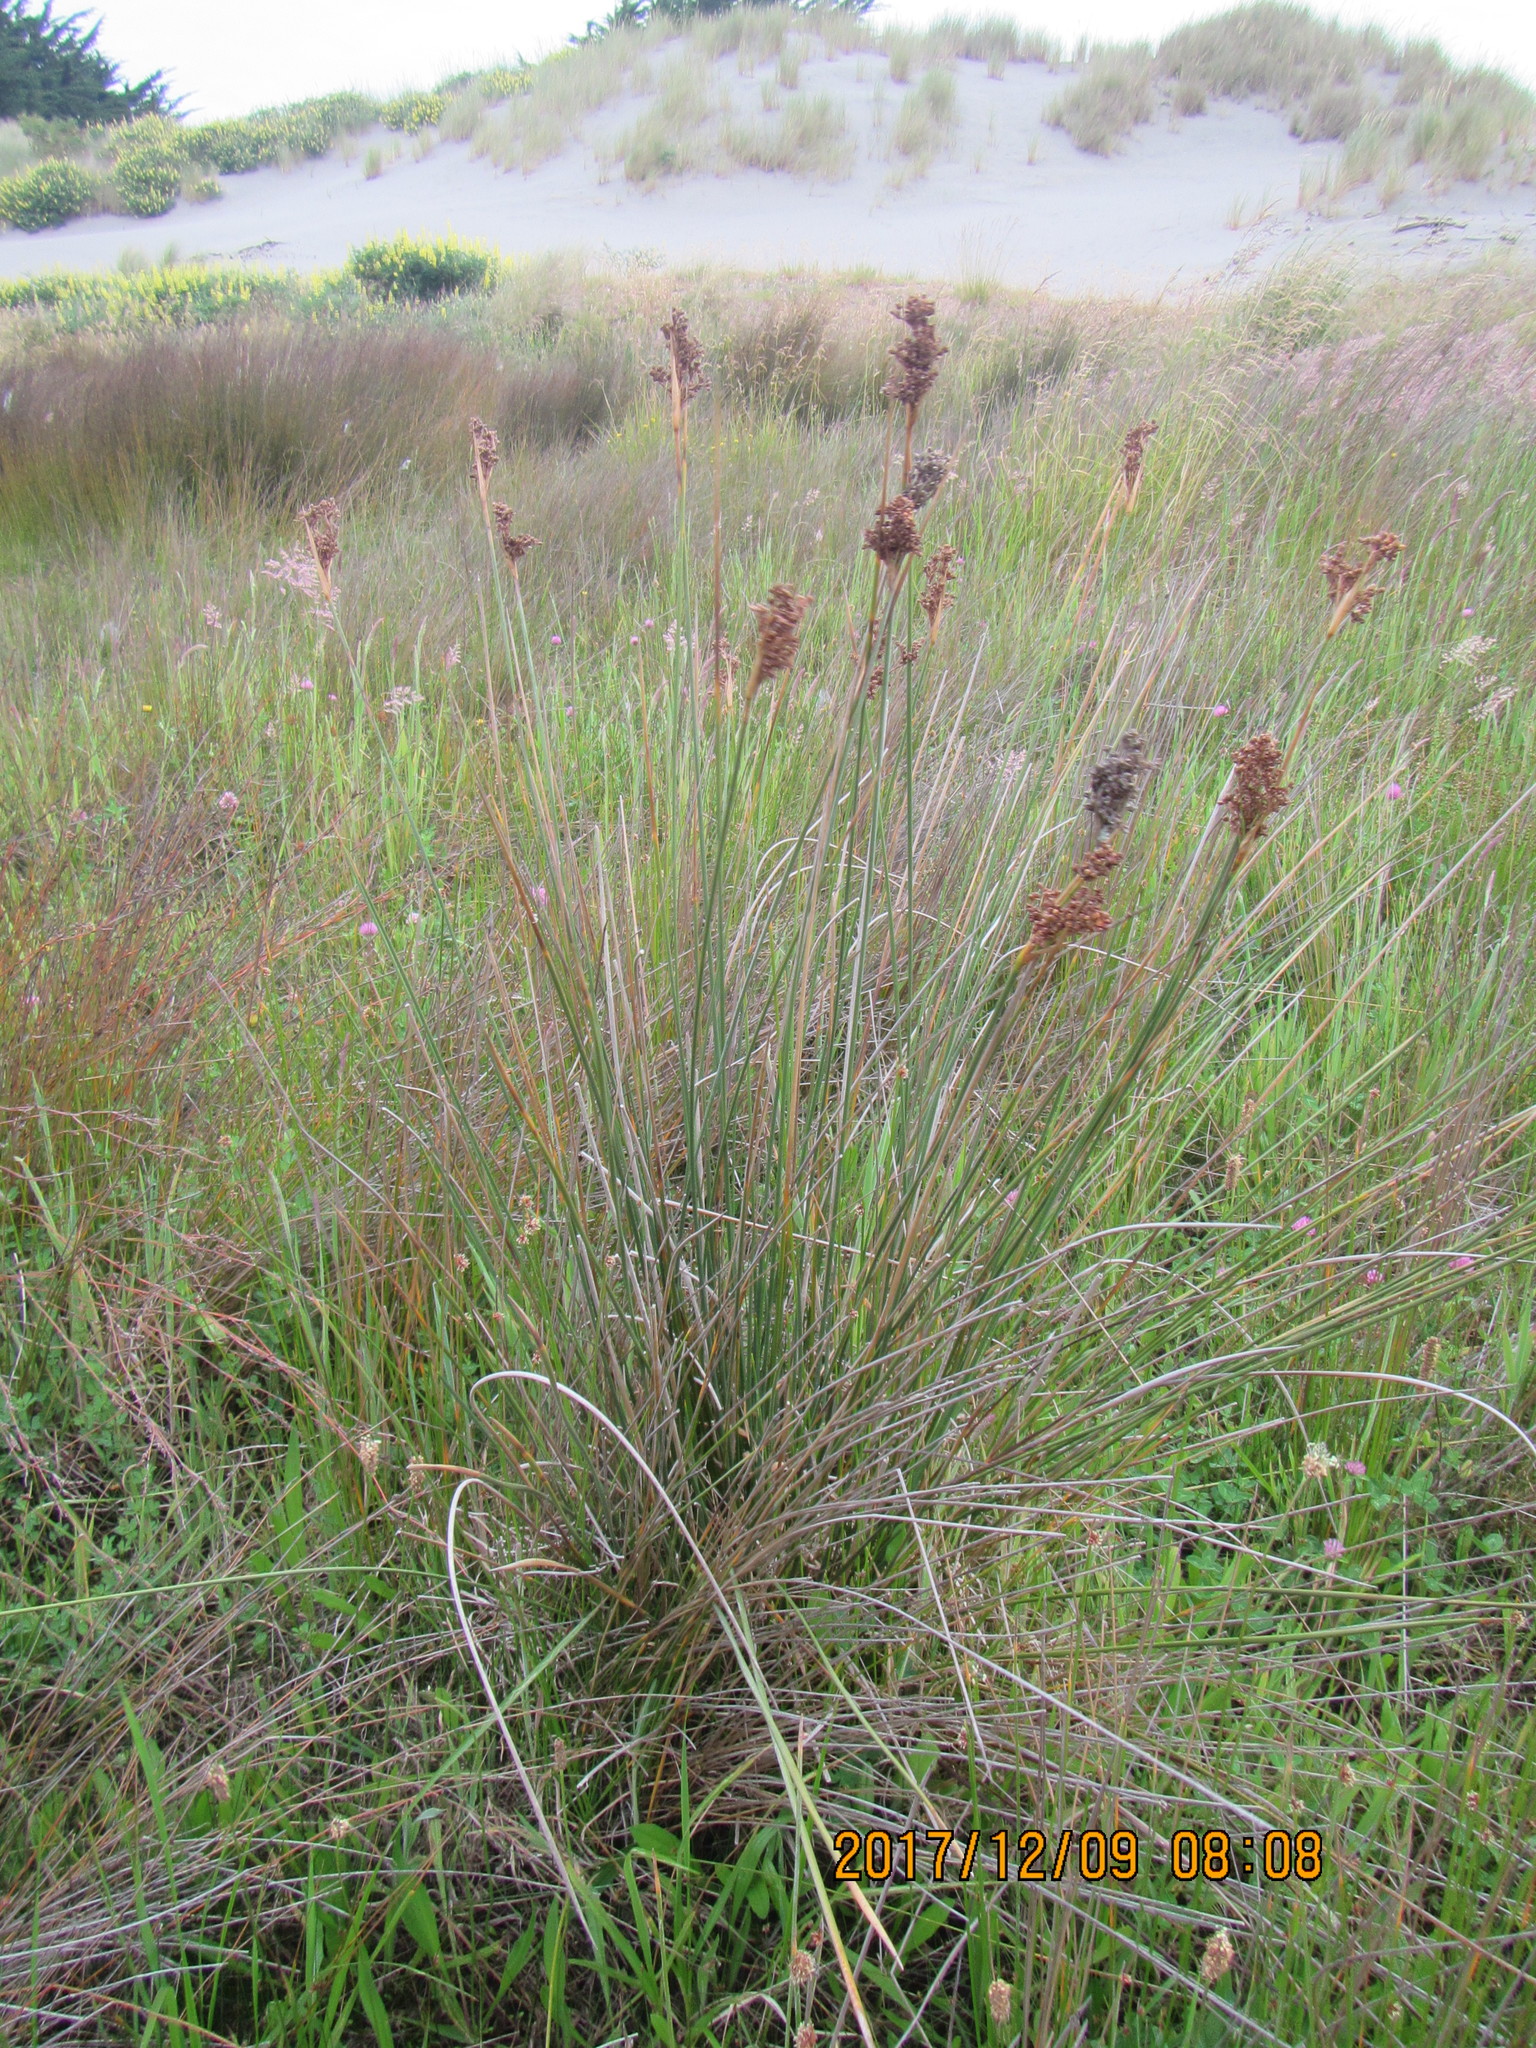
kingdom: Plantae
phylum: Tracheophyta
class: Liliopsida
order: Poales
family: Juncaceae
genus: Juncus
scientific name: Juncus acutus
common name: Sharp rush
